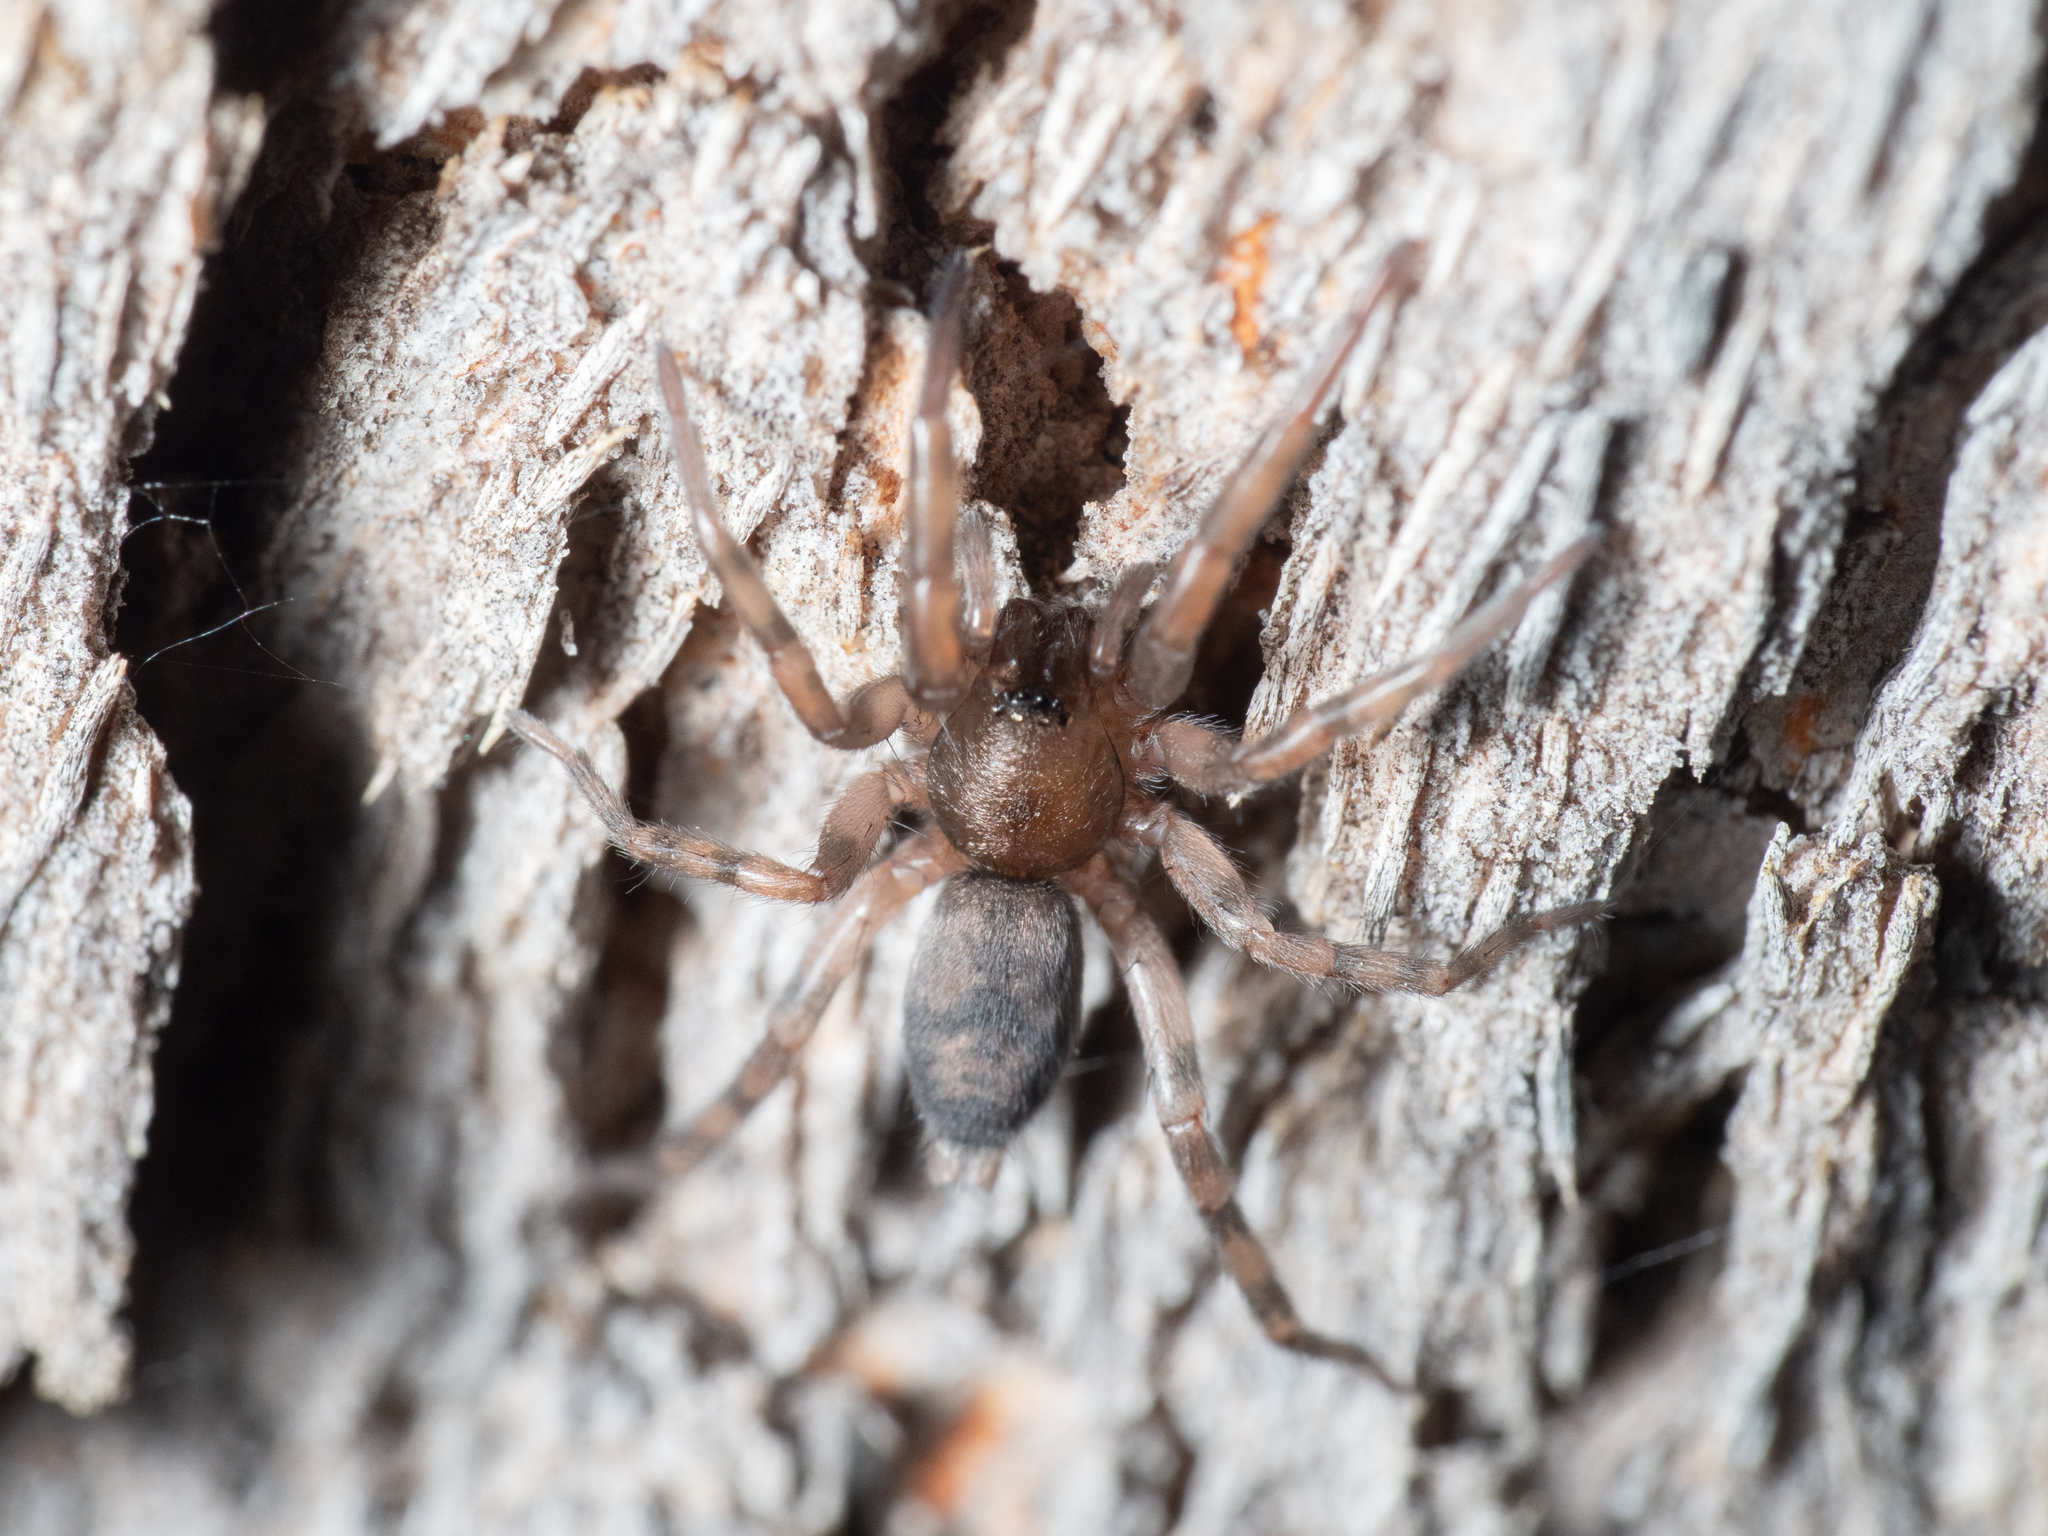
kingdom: Animalia
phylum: Arthropoda
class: Arachnida
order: Araneae
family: Gnaphosidae
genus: Intruda
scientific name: Intruda signata
